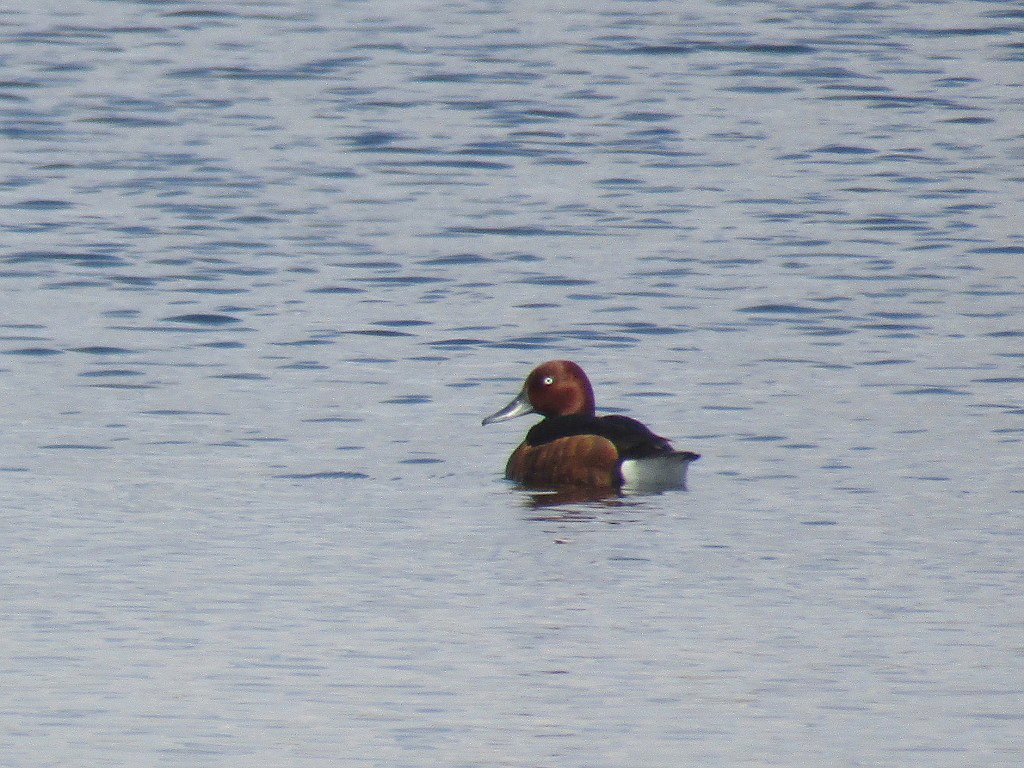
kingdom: Animalia
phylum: Chordata
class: Aves
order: Anseriformes
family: Anatidae
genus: Aythya
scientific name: Aythya nyroca
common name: Ferruginous duck
